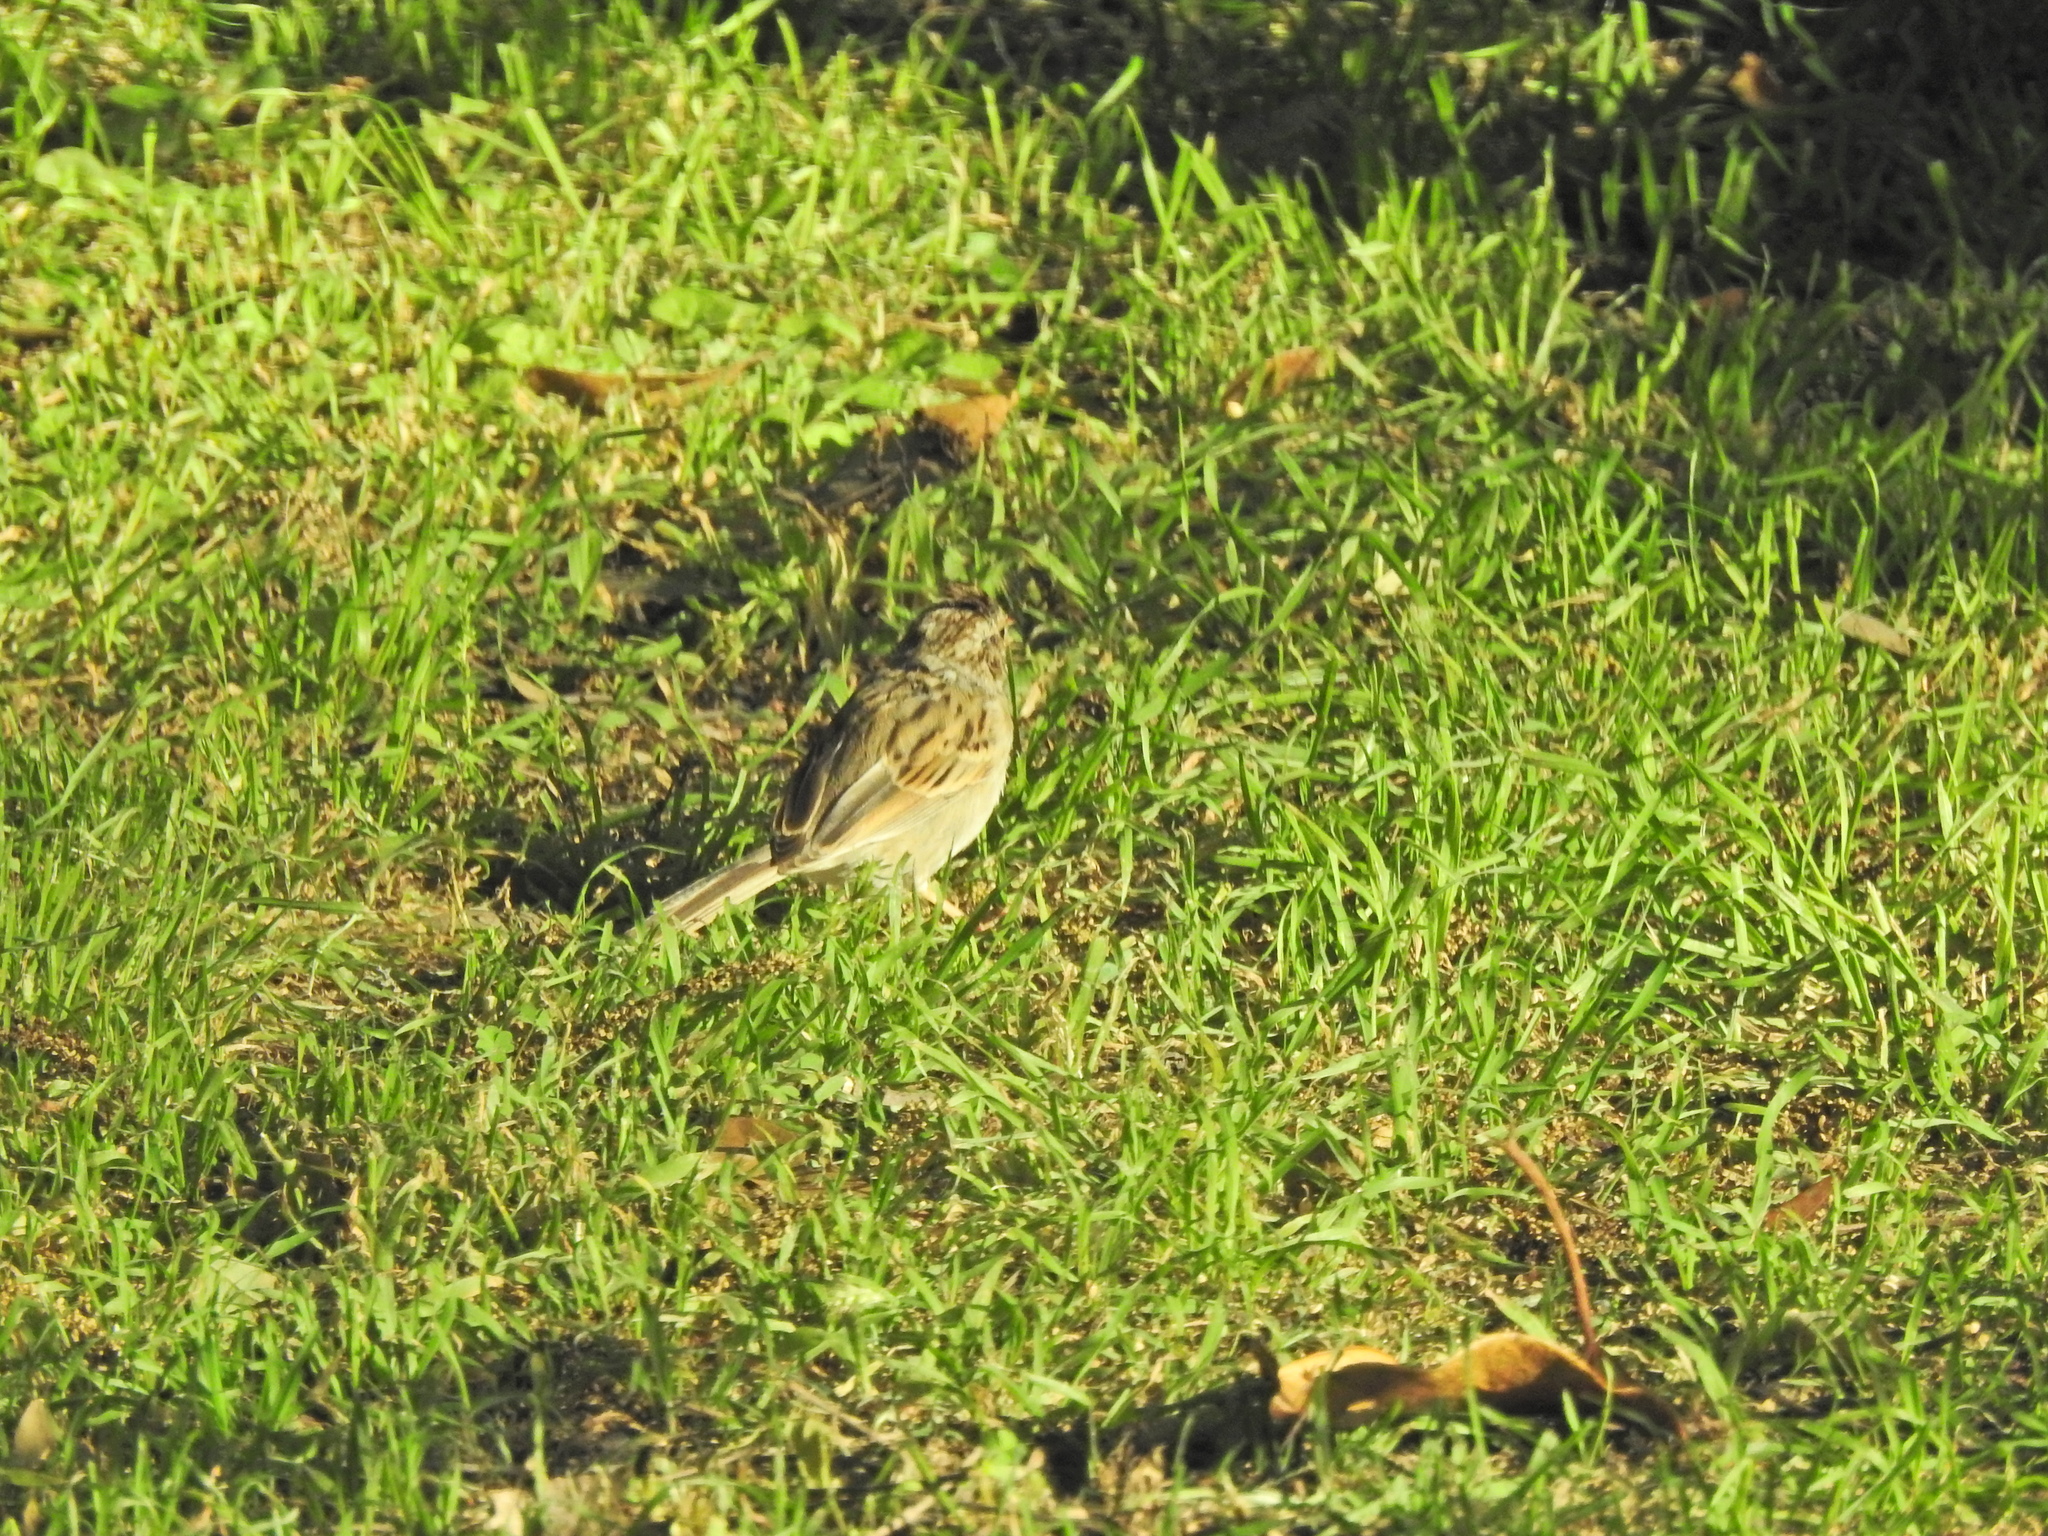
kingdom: Animalia
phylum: Chordata
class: Aves
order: Passeriformes
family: Passerellidae
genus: Spizella
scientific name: Spizella pallida
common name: Clay-colored sparrow
